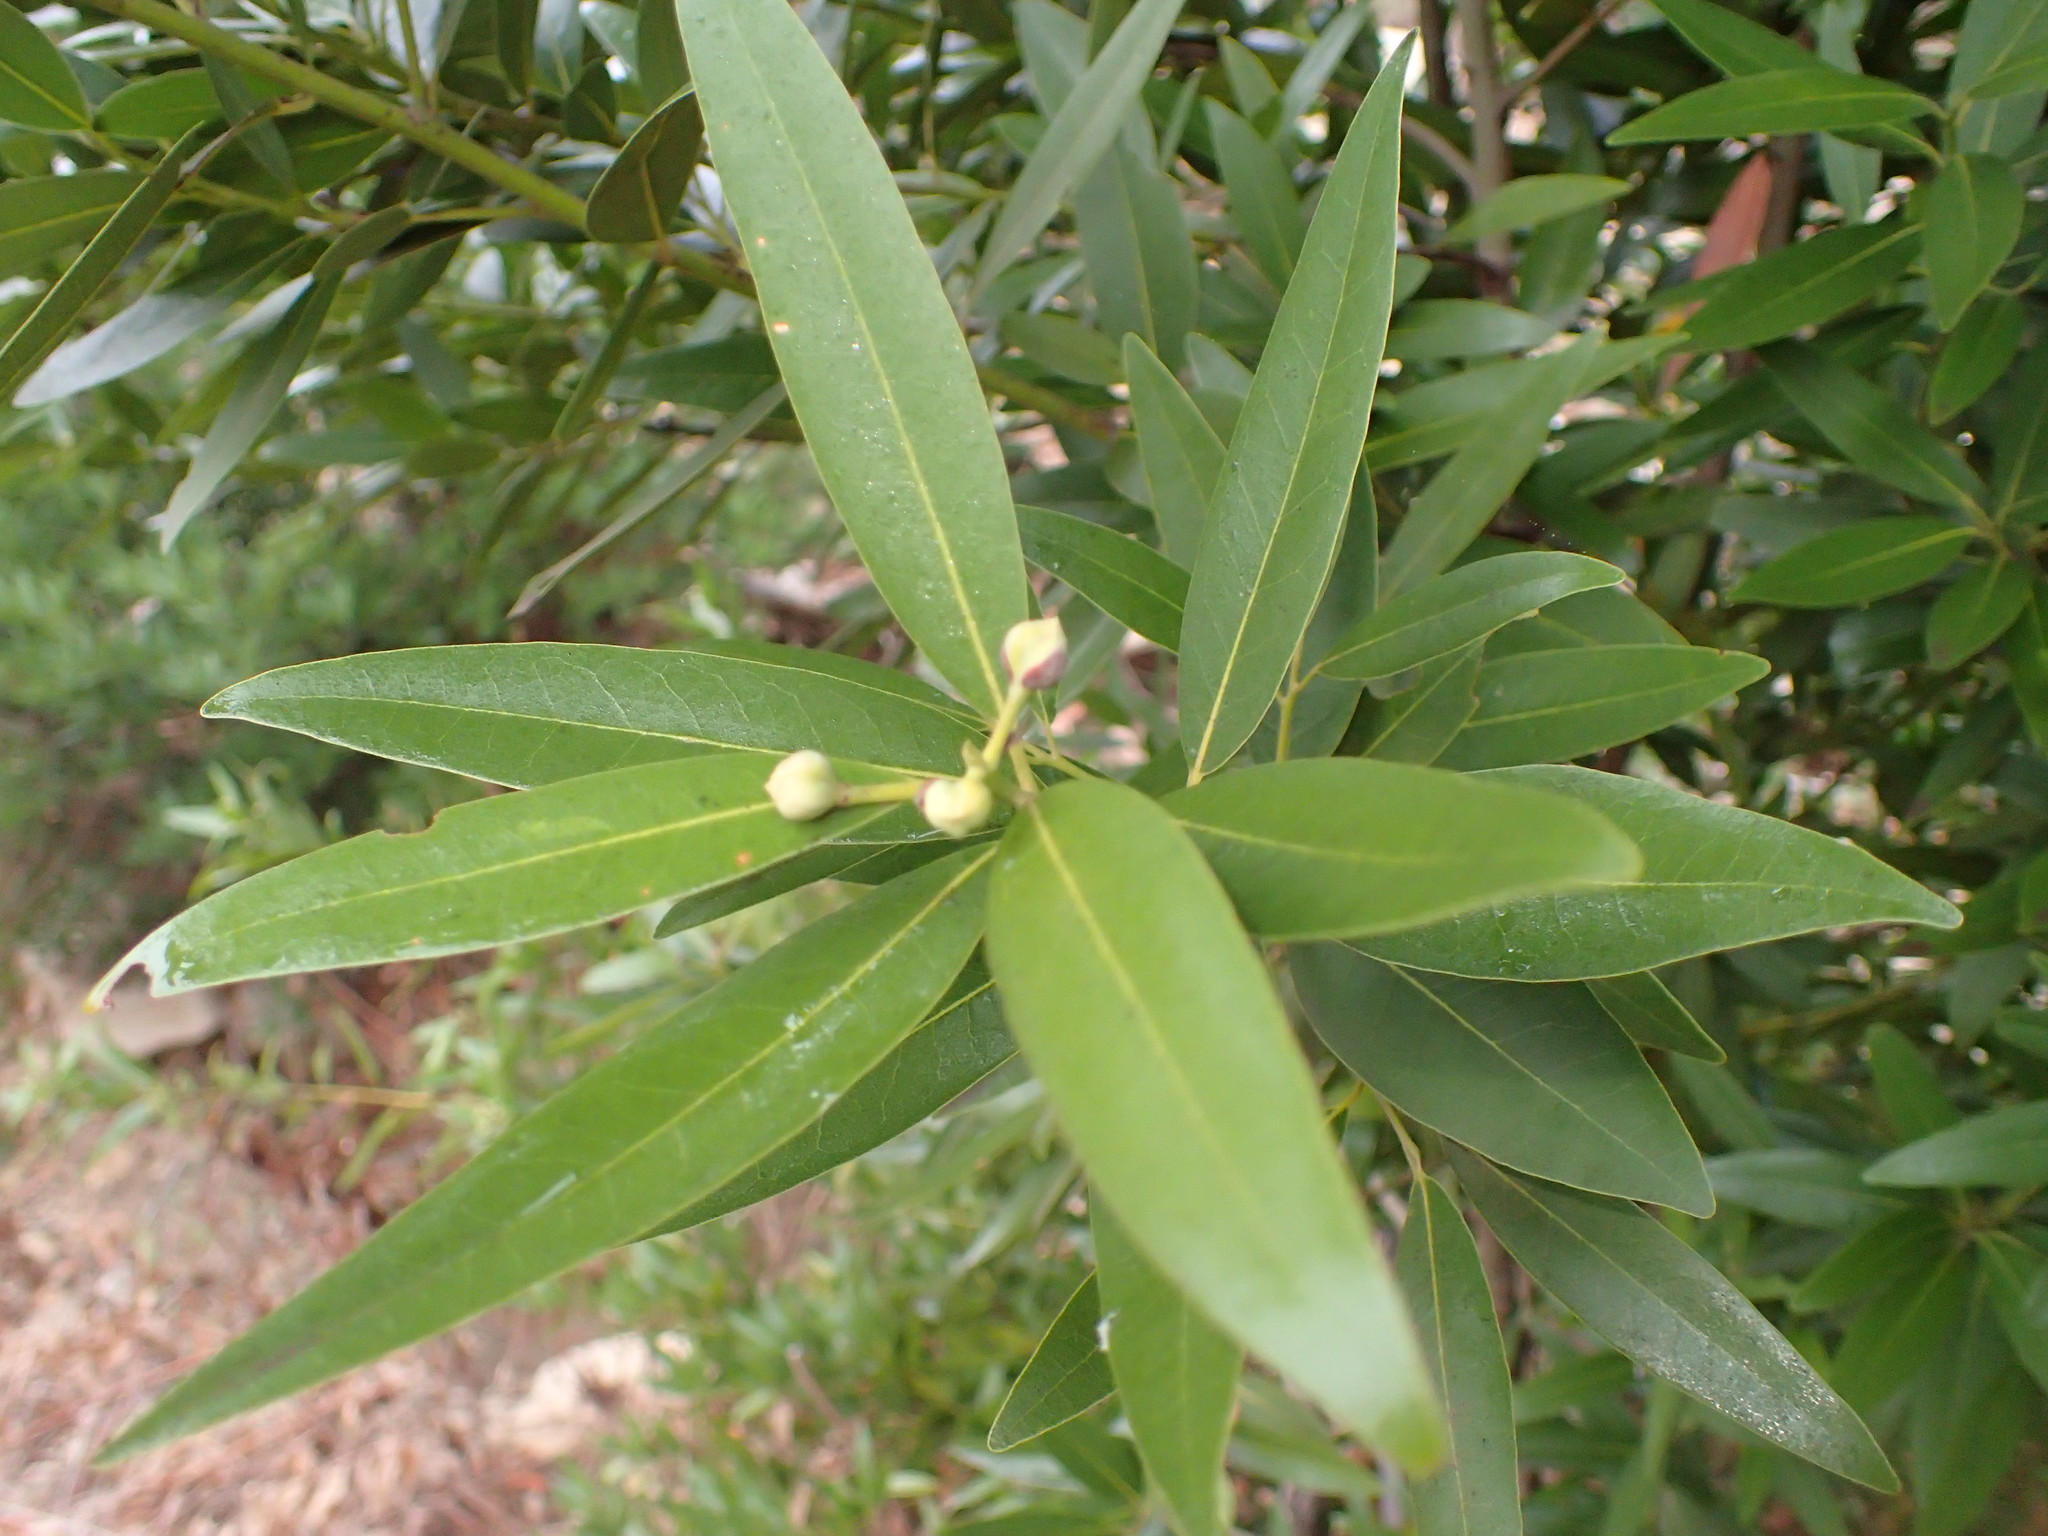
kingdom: Plantae
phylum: Tracheophyta
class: Magnoliopsida
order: Laurales
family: Lauraceae
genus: Umbellularia
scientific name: Umbellularia californica
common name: California bay
